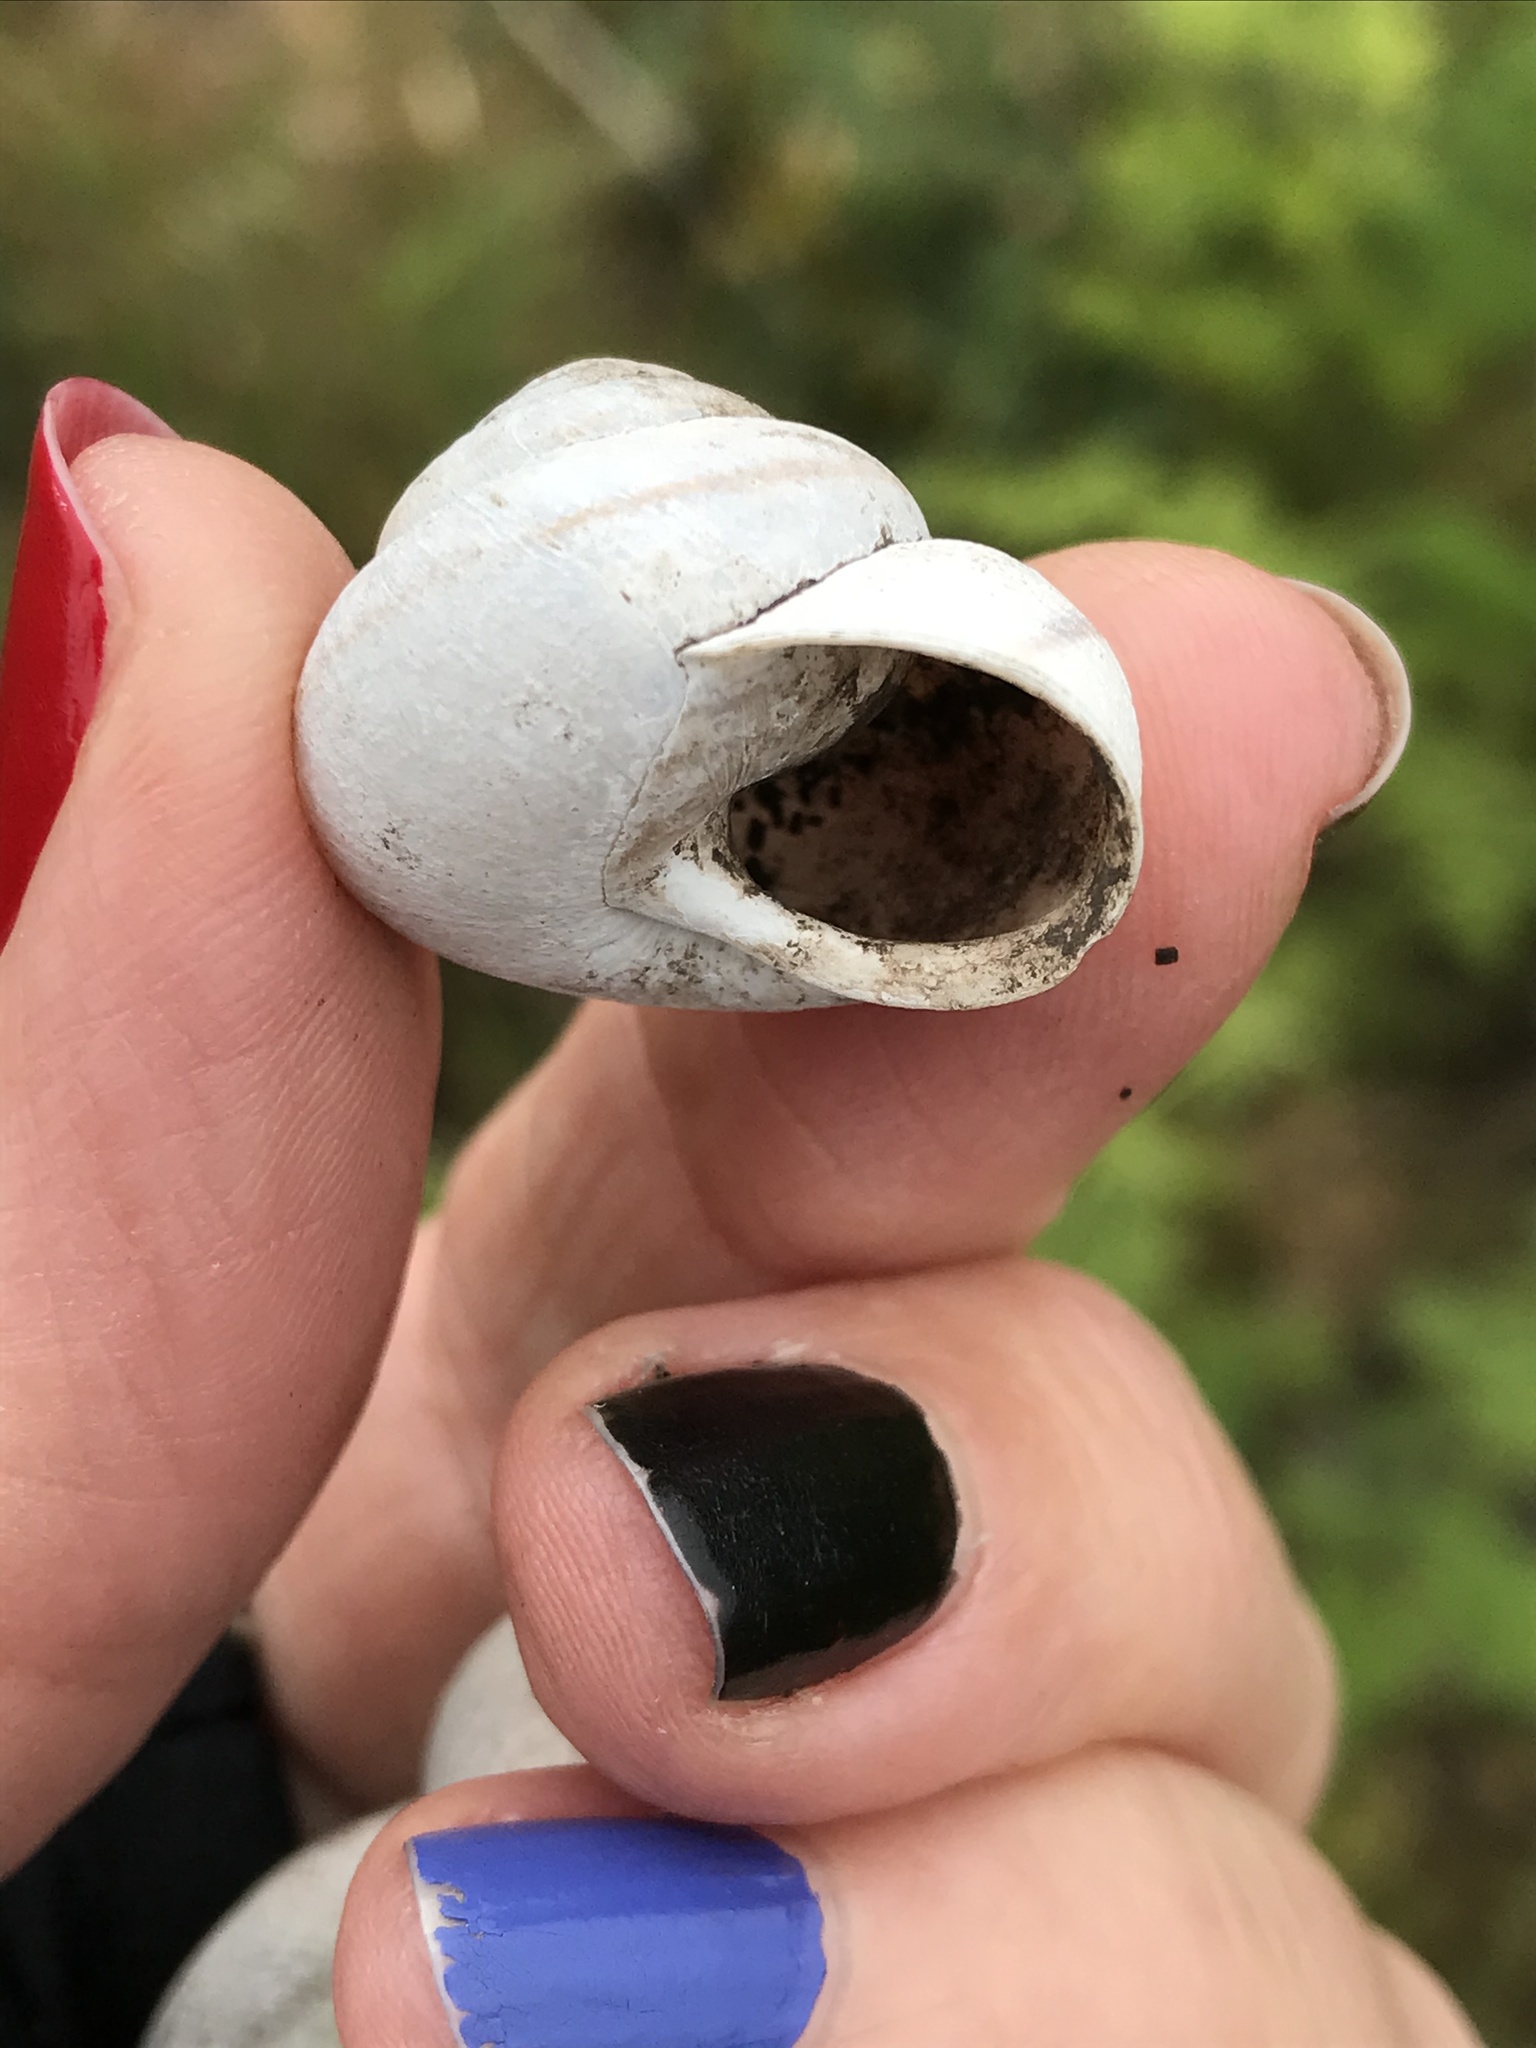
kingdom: Animalia
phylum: Mollusca
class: Gastropoda
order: Stylommatophora
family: Xanthonychidae
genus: Helminthoglypta
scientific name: Helminthoglypta stiversiana
